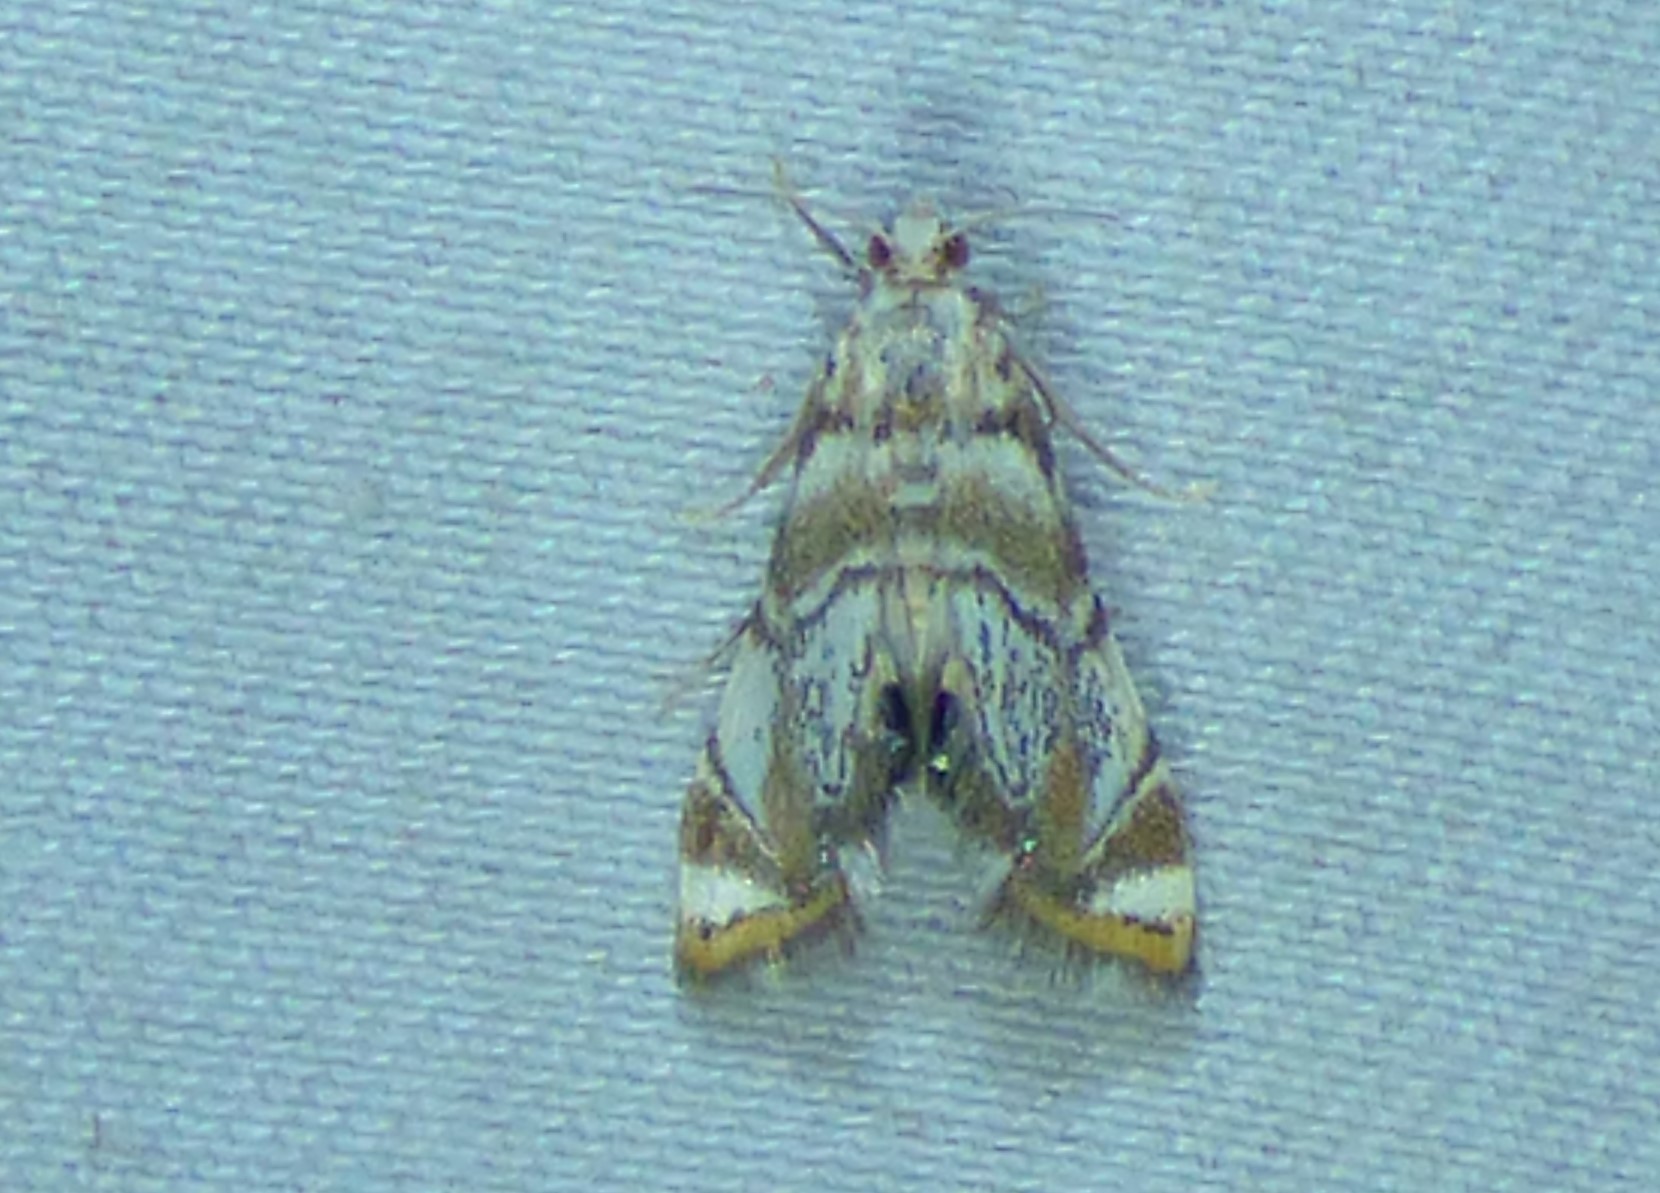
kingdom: Animalia
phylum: Arthropoda
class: Insecta
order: Lepidoptera
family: Crambidae
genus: Eoparargyractis
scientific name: Eoparargyractis irroratalis
